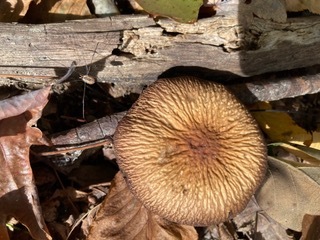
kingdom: Fungi
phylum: Basidiomycota
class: Agaricomycetes
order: Agaricales
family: Physalacriaceae
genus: Hymenopellis
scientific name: Hymenopellis furfuracea
